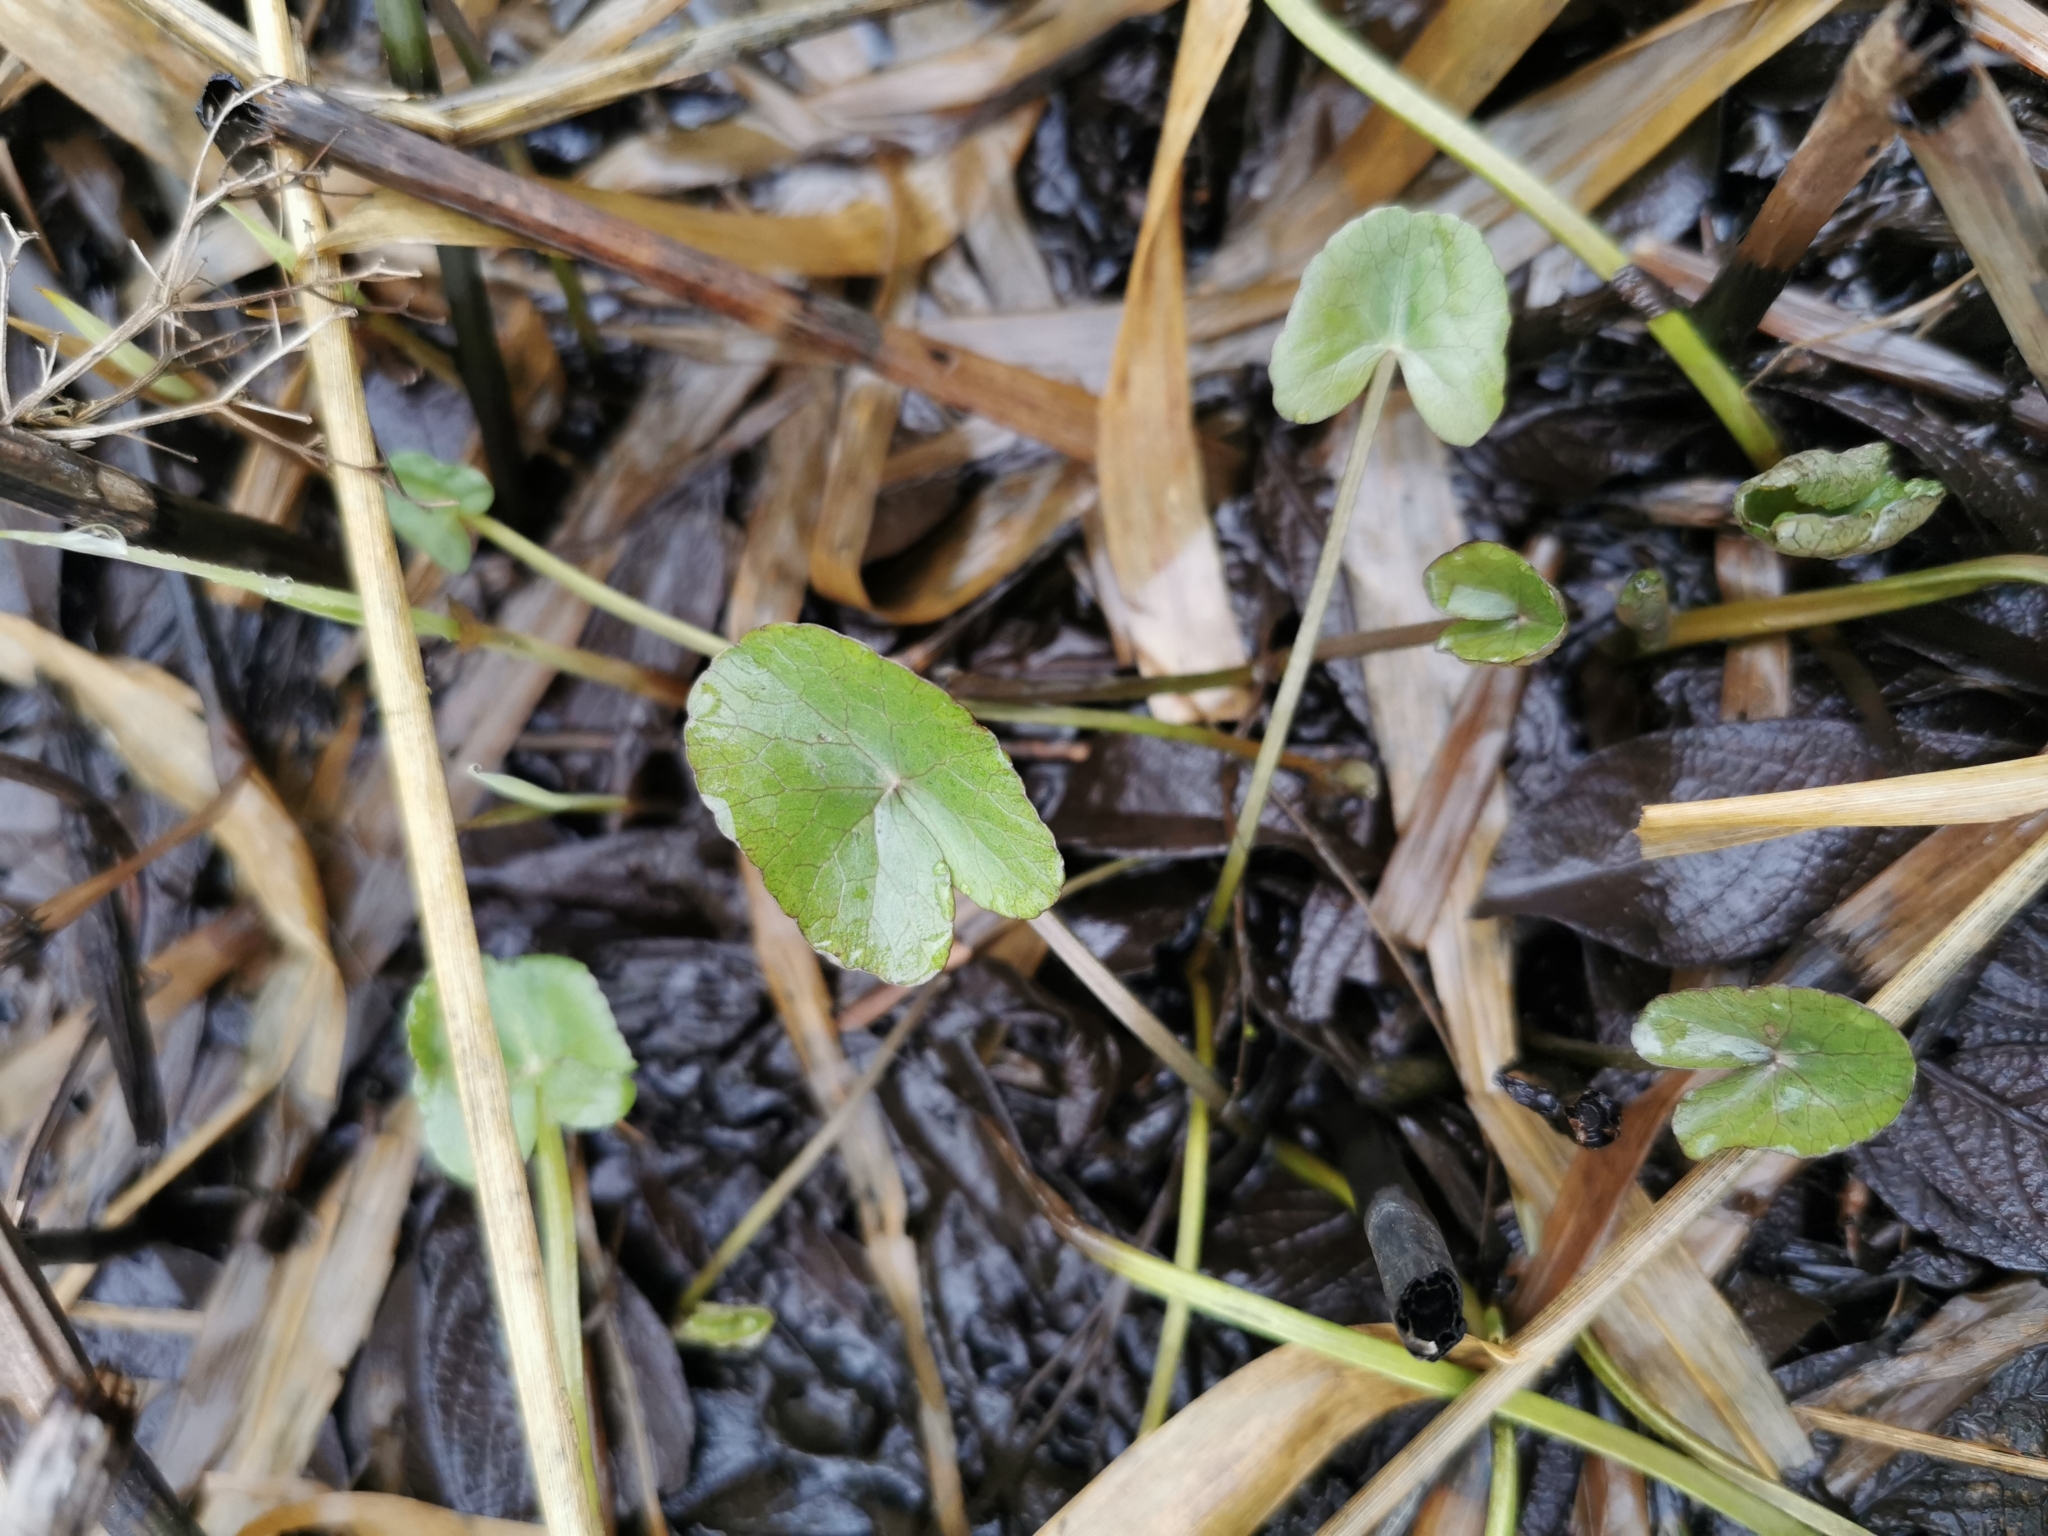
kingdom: Plantae
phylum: Tracheophyta
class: Magnoliopsida
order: Ranunculales
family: Ranunculaceae
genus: Caltha
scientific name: Caltha palustris
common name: Marsh marigold
